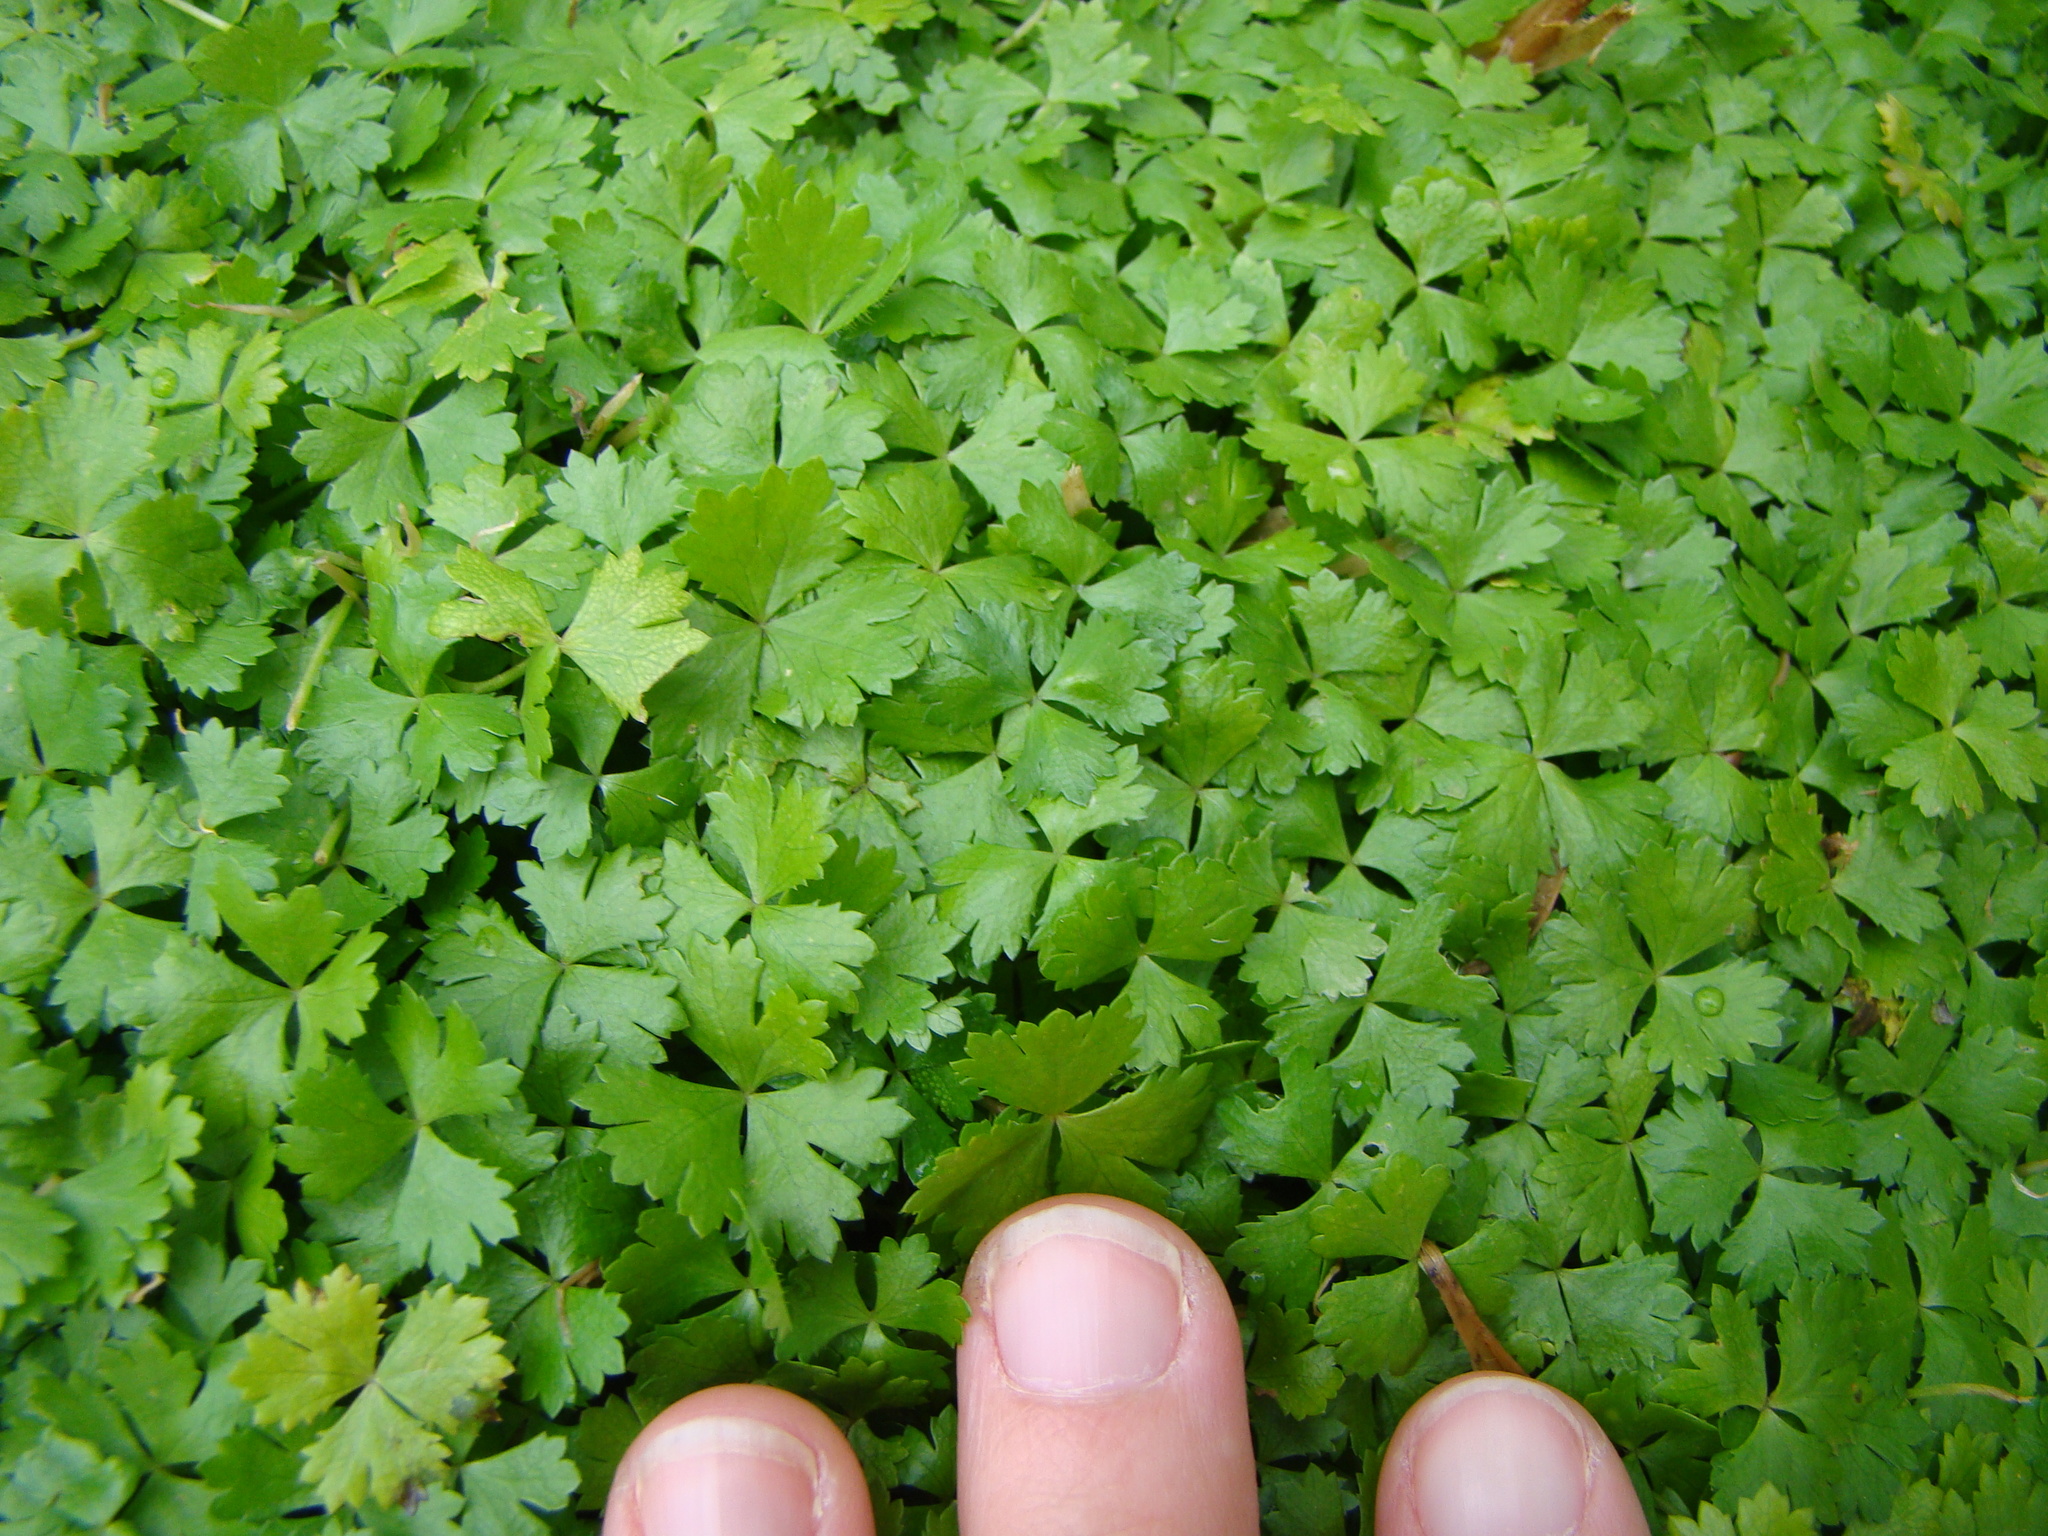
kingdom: Plantae
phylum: Tracheophyta
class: Magnoliopsida
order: Apiales
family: Araliaceae
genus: Hydrocotyle
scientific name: Hydrocotyle tripartita
